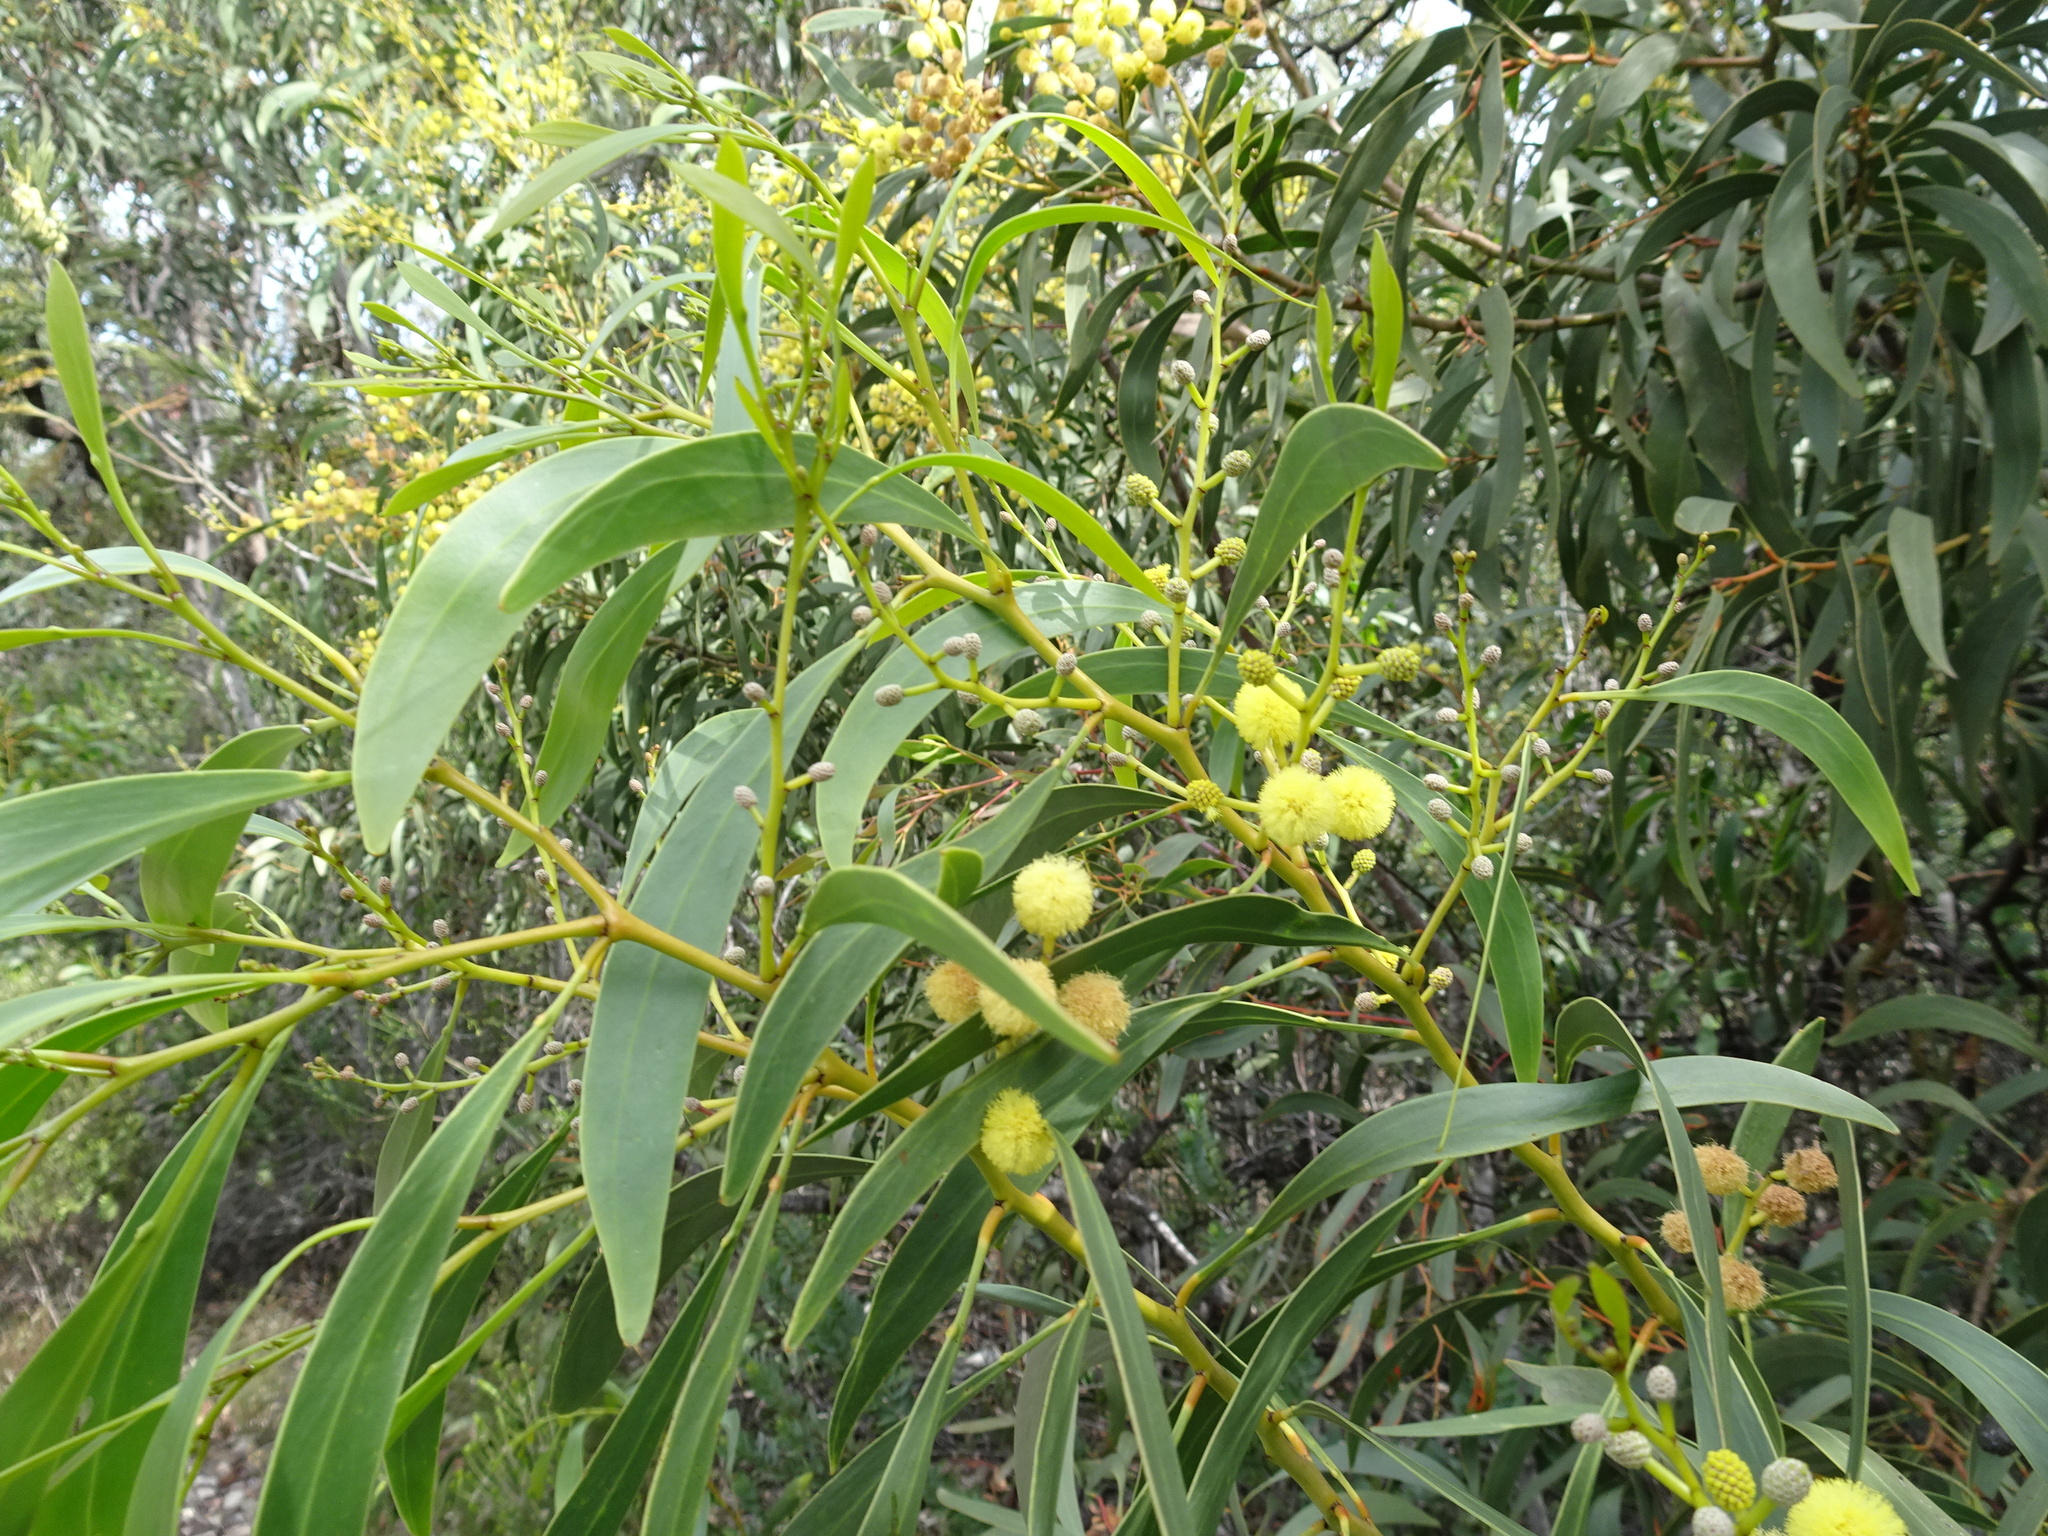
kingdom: Plantae
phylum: Tracheophyta
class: Magnoliopsida
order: Fabales
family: Fabaceae
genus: Acacia
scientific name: Acacia pycnantha
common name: Golden wattle
